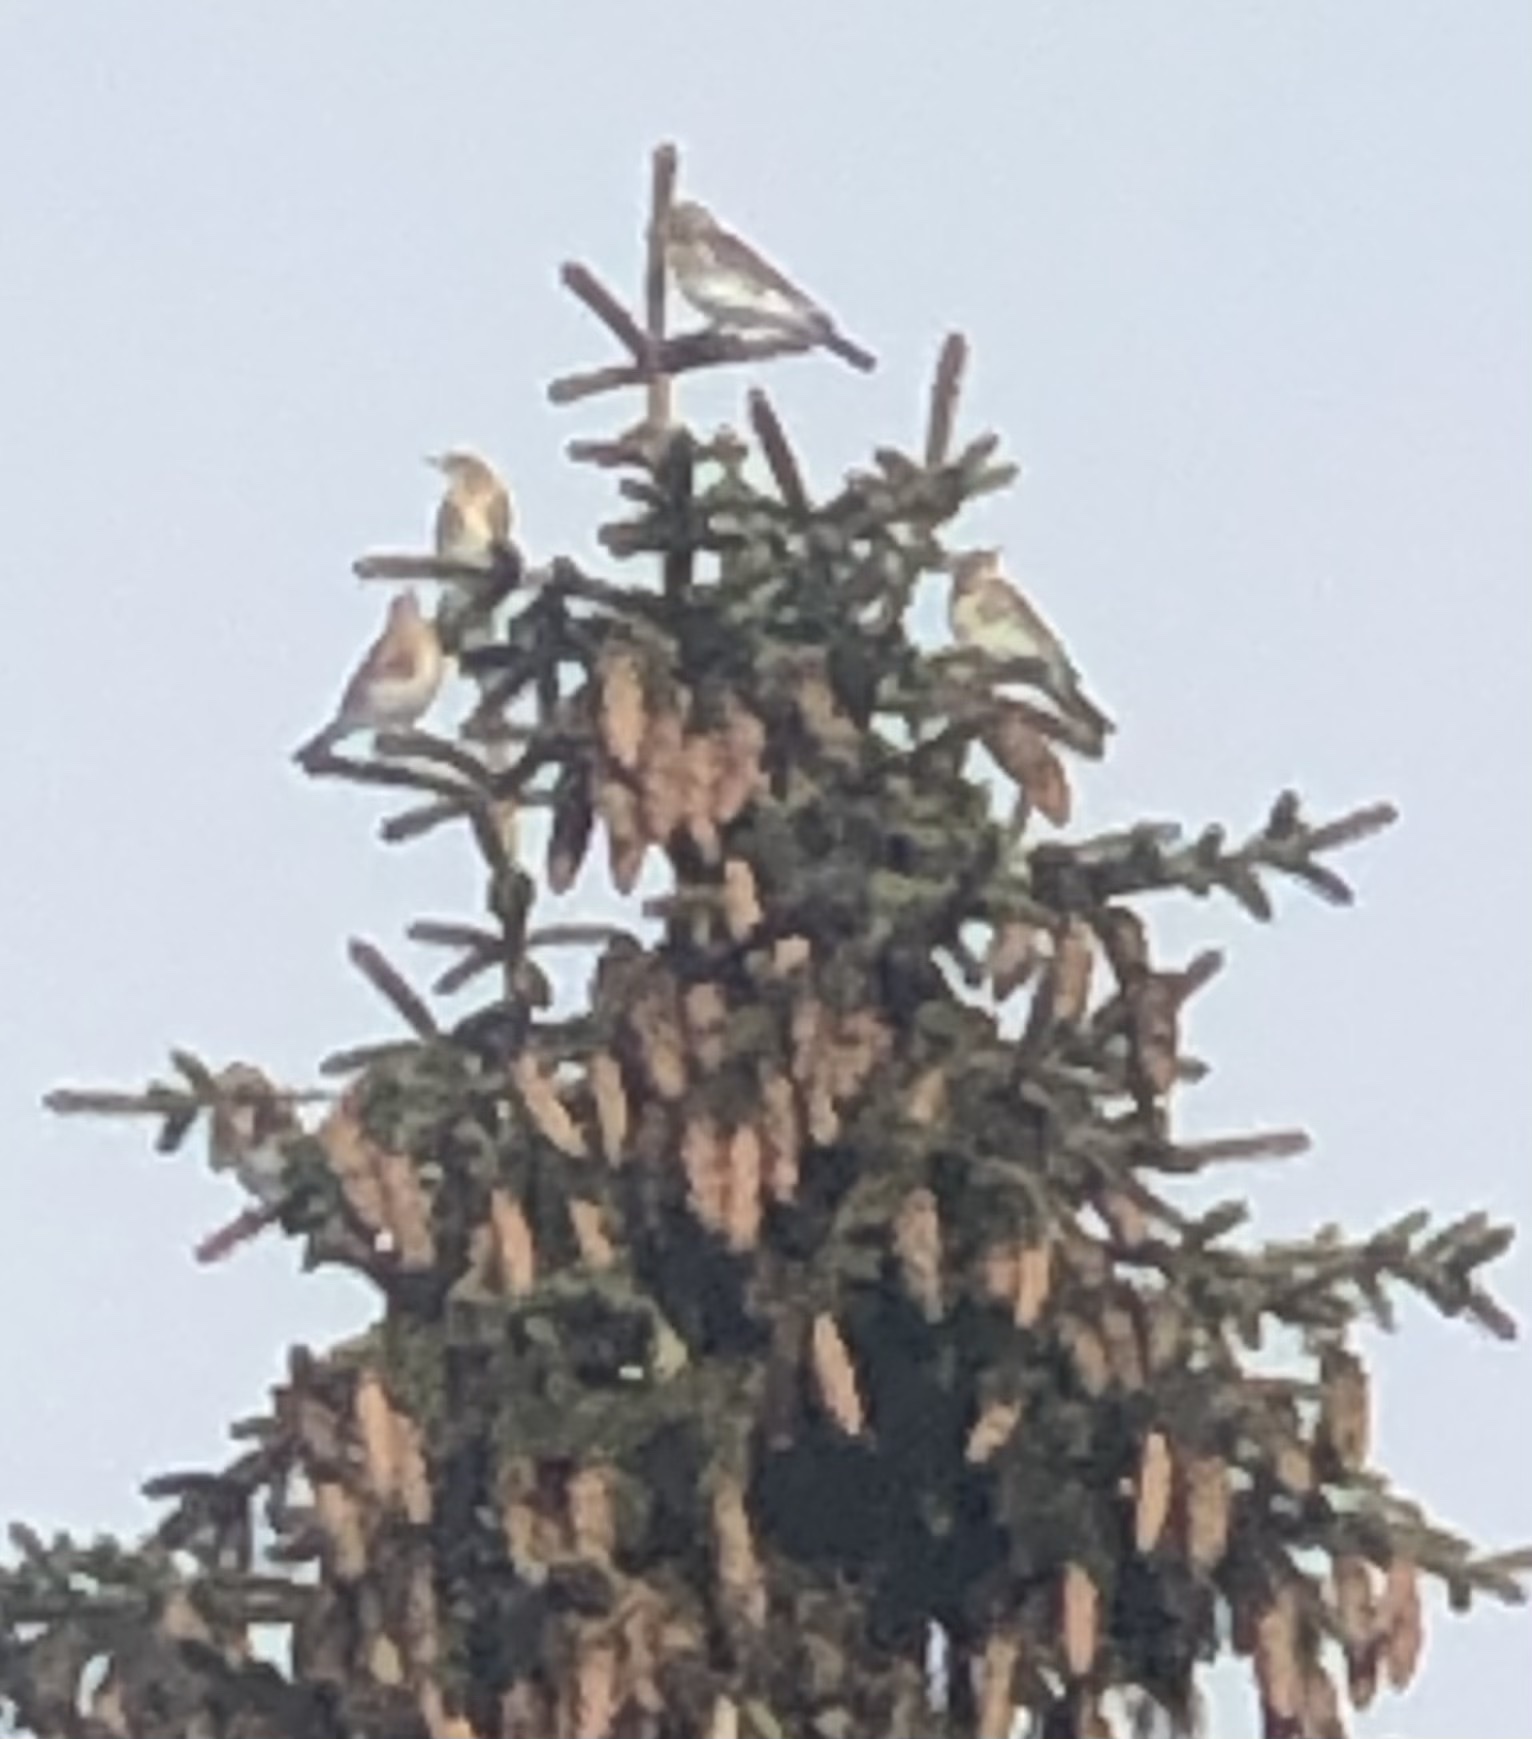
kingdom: Animalia
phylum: Chordata
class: Aves
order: Passeriformes
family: Turdidae
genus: Turdus
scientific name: Turdus pilaris
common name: Fieldfare
